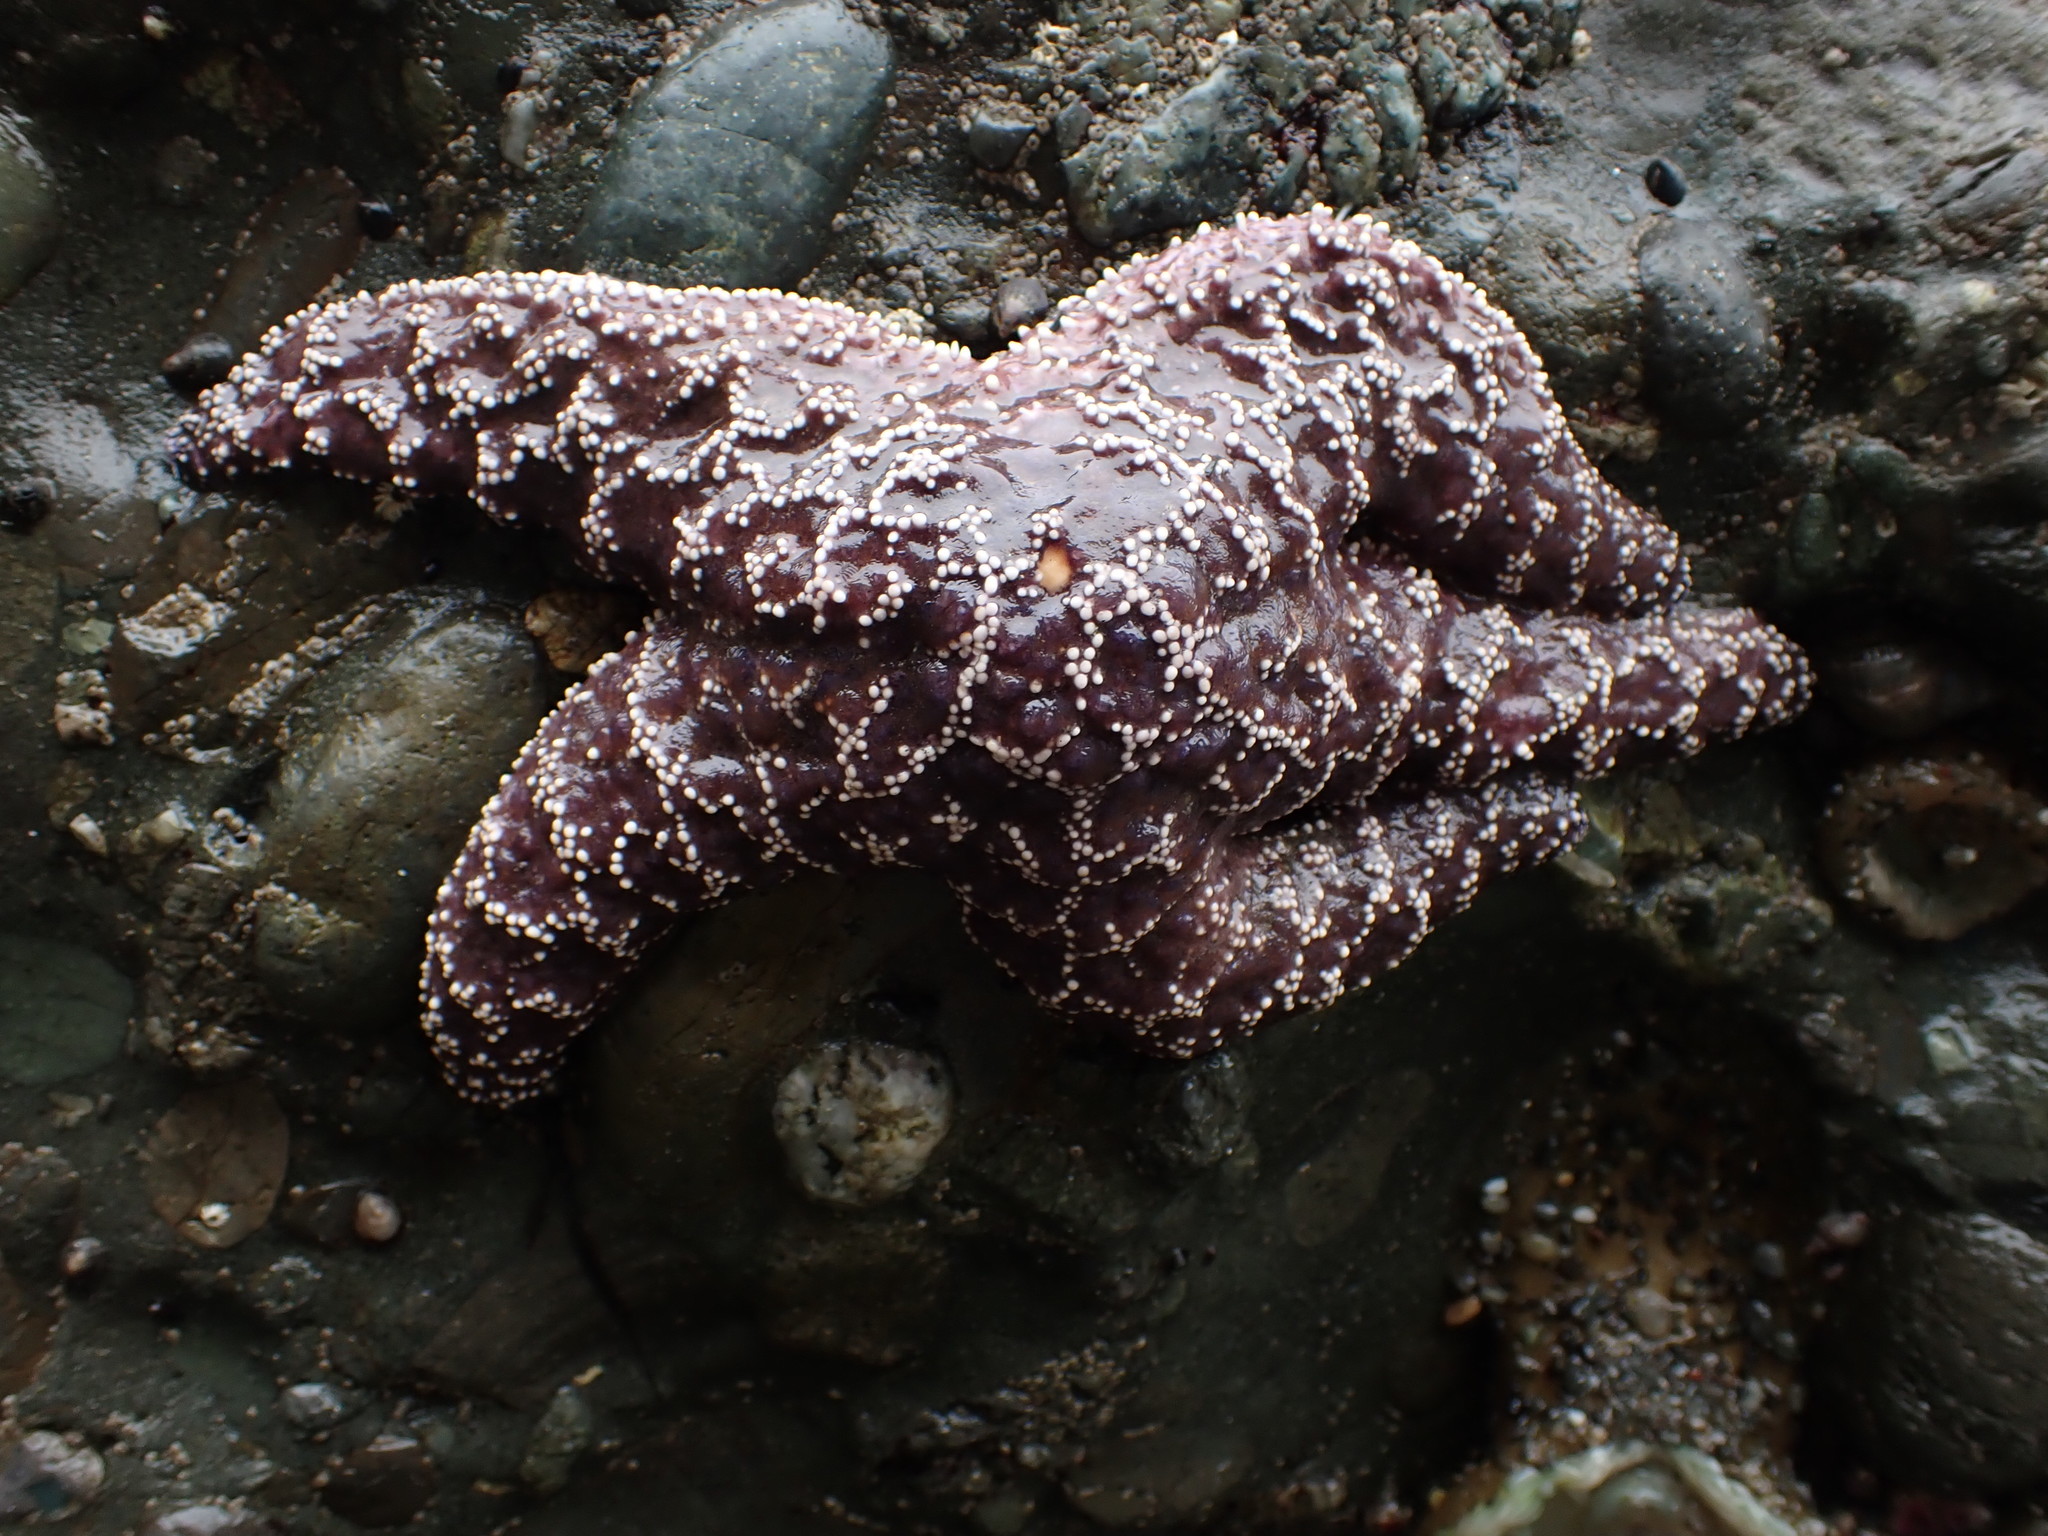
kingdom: Animalia
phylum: Echinodermata
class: Asteroidea
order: Forcipulatida
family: Asteriidae
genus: Pisaster
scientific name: Pisaster ochraceus
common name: Ochre stars
